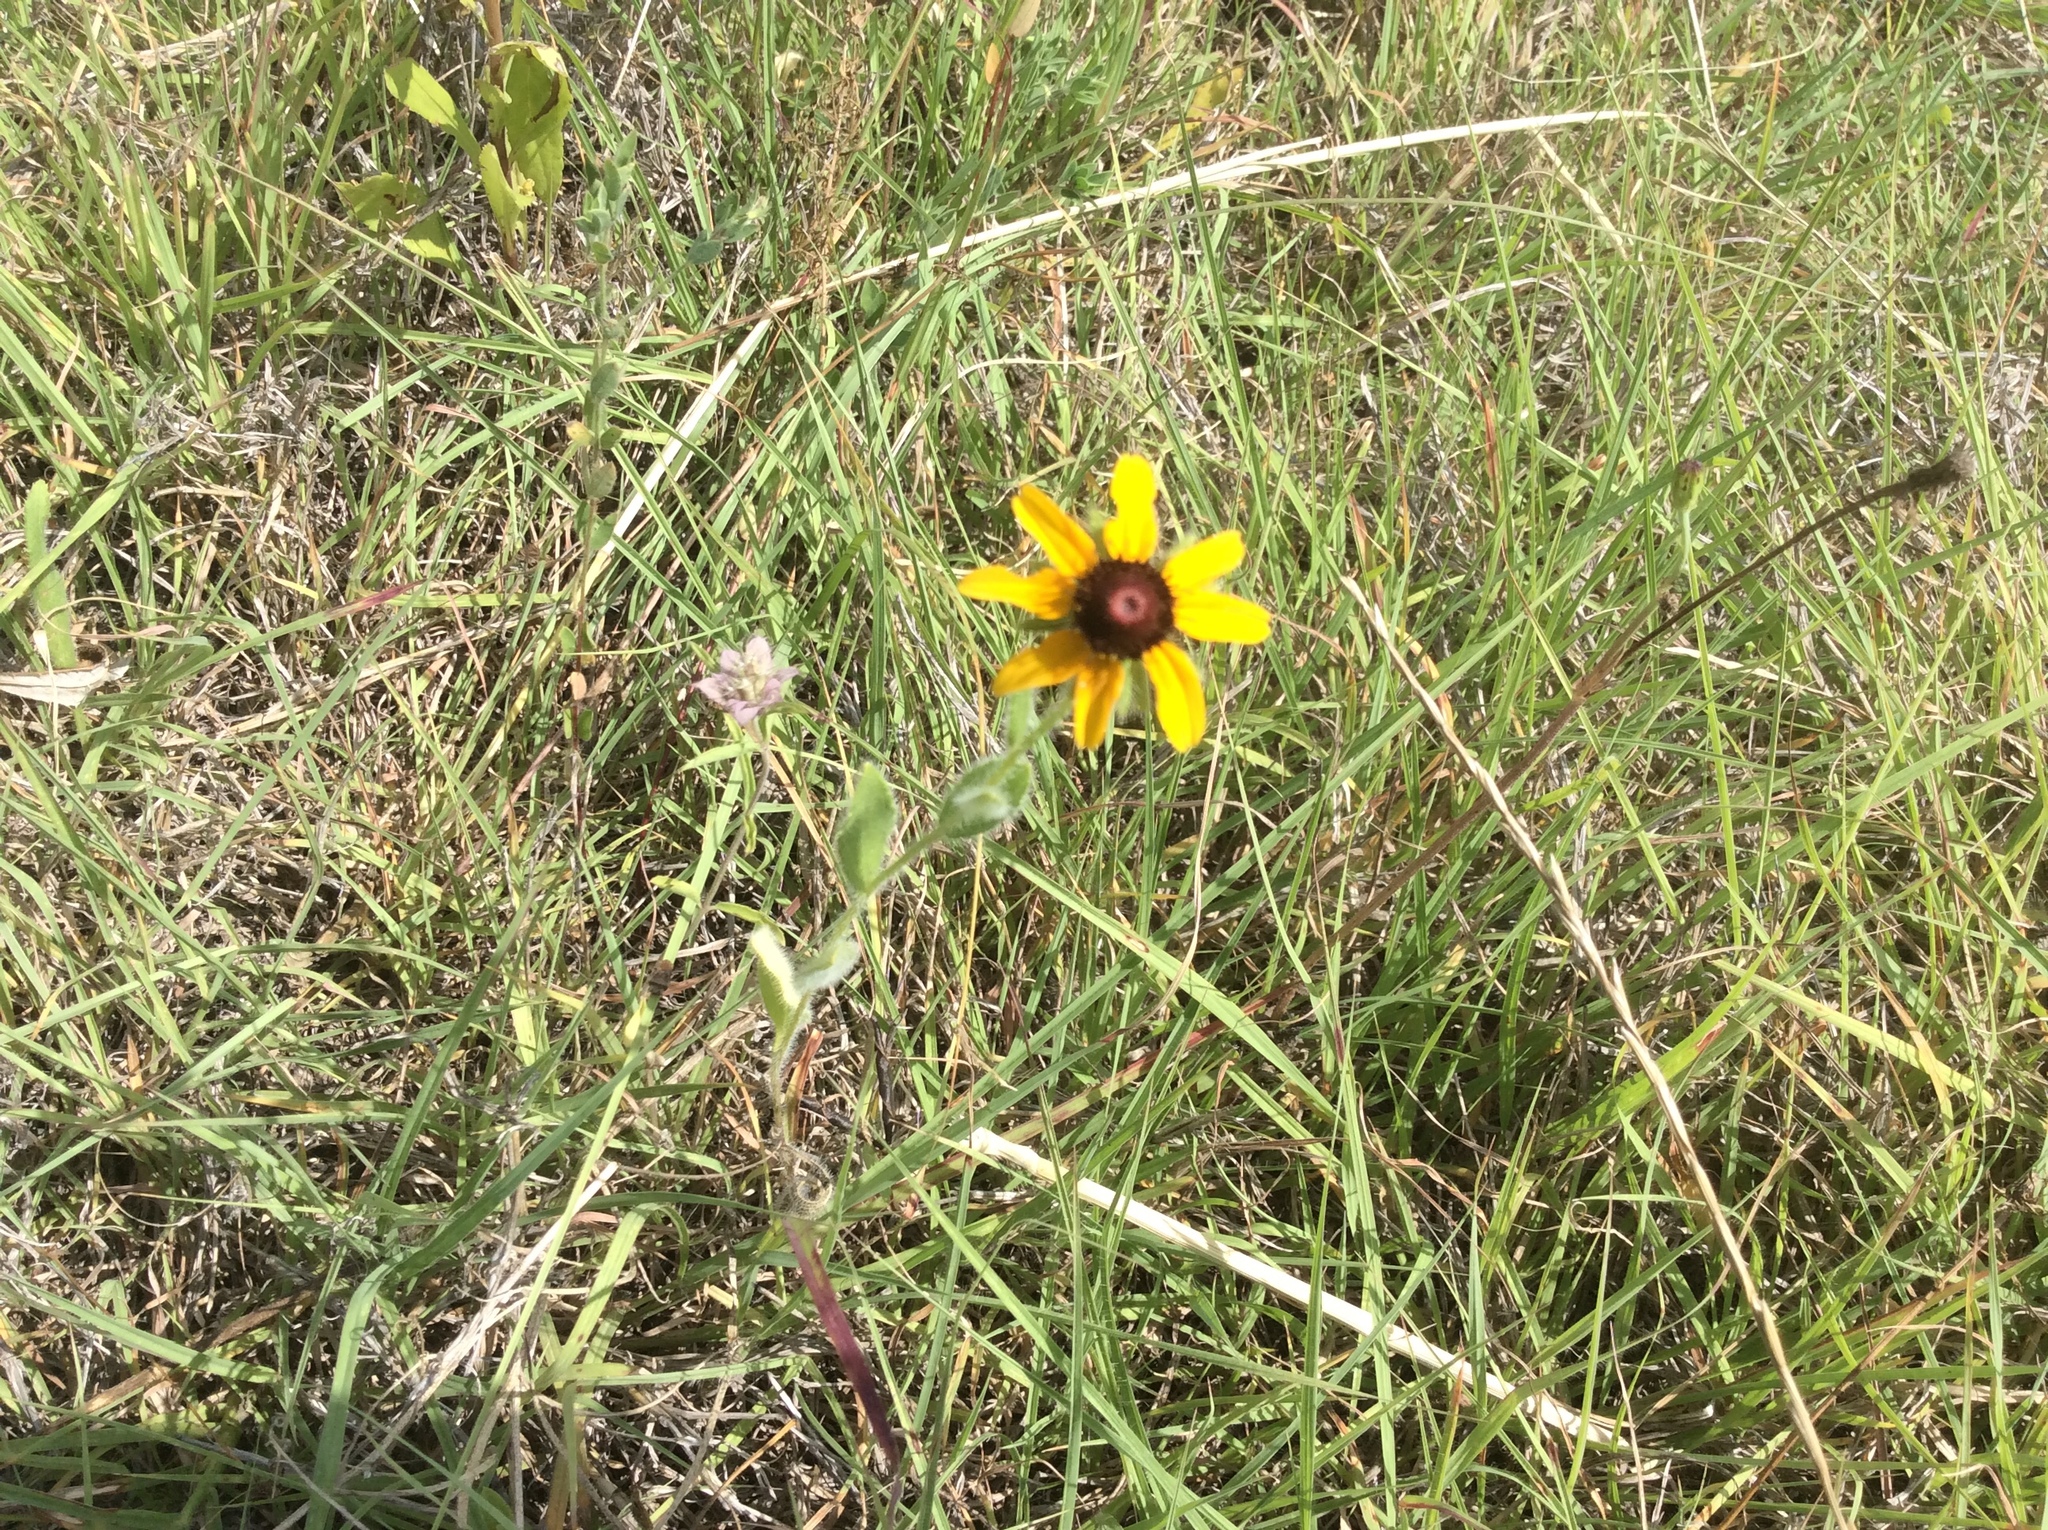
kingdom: Plantae
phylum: Tracheophyta
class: Magnoliopsida
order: Asterales
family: Asteraceae
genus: Rudbeckia
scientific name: Rudbeckia hirta
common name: Black-eyed-susan
